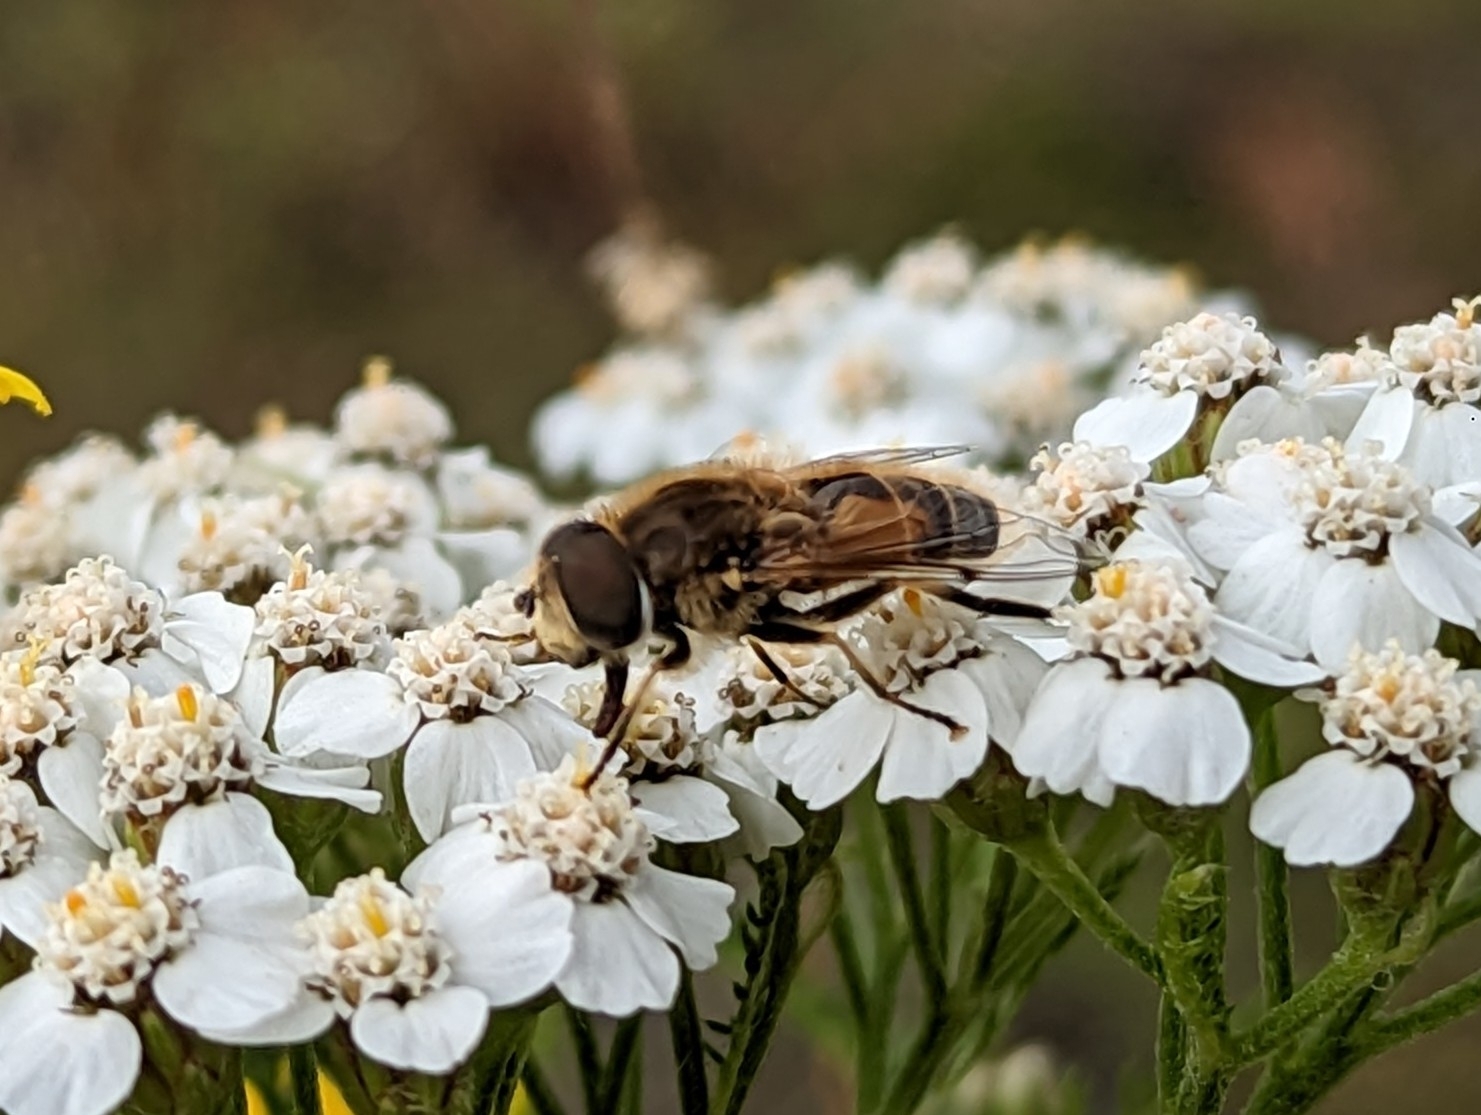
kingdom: Animalia
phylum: Arthropoda
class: Insecta
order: Diptera
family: Syrphidae
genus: Eristalis
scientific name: Eristalis arbustorum
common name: Hover fly
